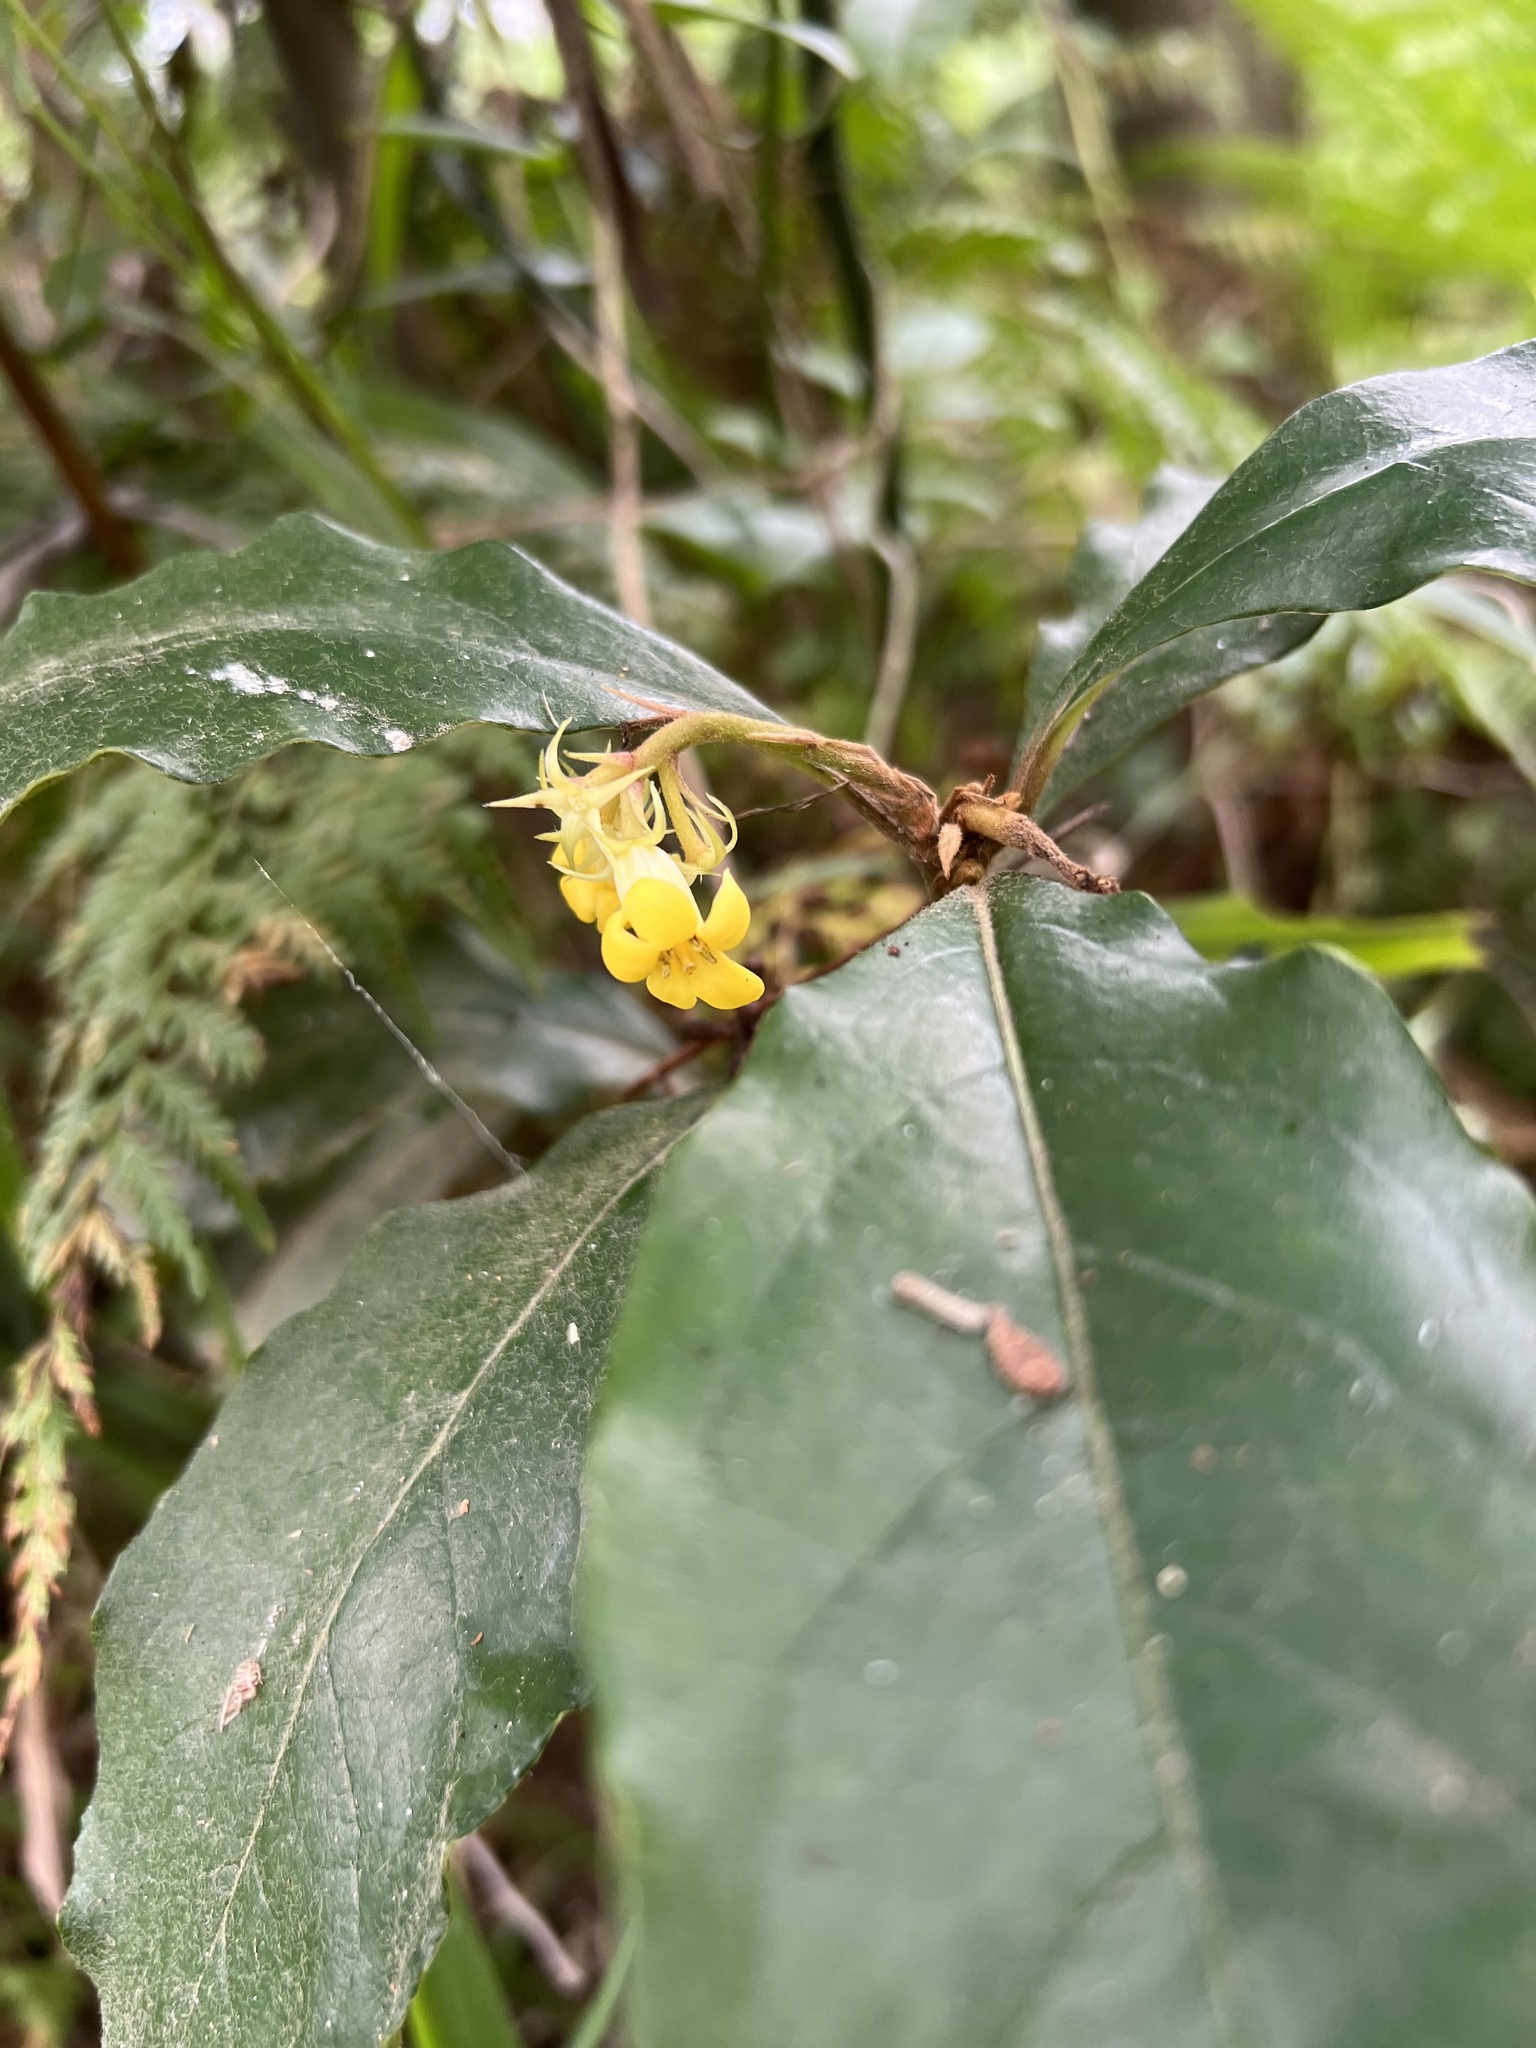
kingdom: Plantae
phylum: Tracheophyta
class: Magnoliopsida
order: Apiales
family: Pittosporaceae
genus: Pittosporum
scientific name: Pittosporum revolutum
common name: Brisbane-laurel
